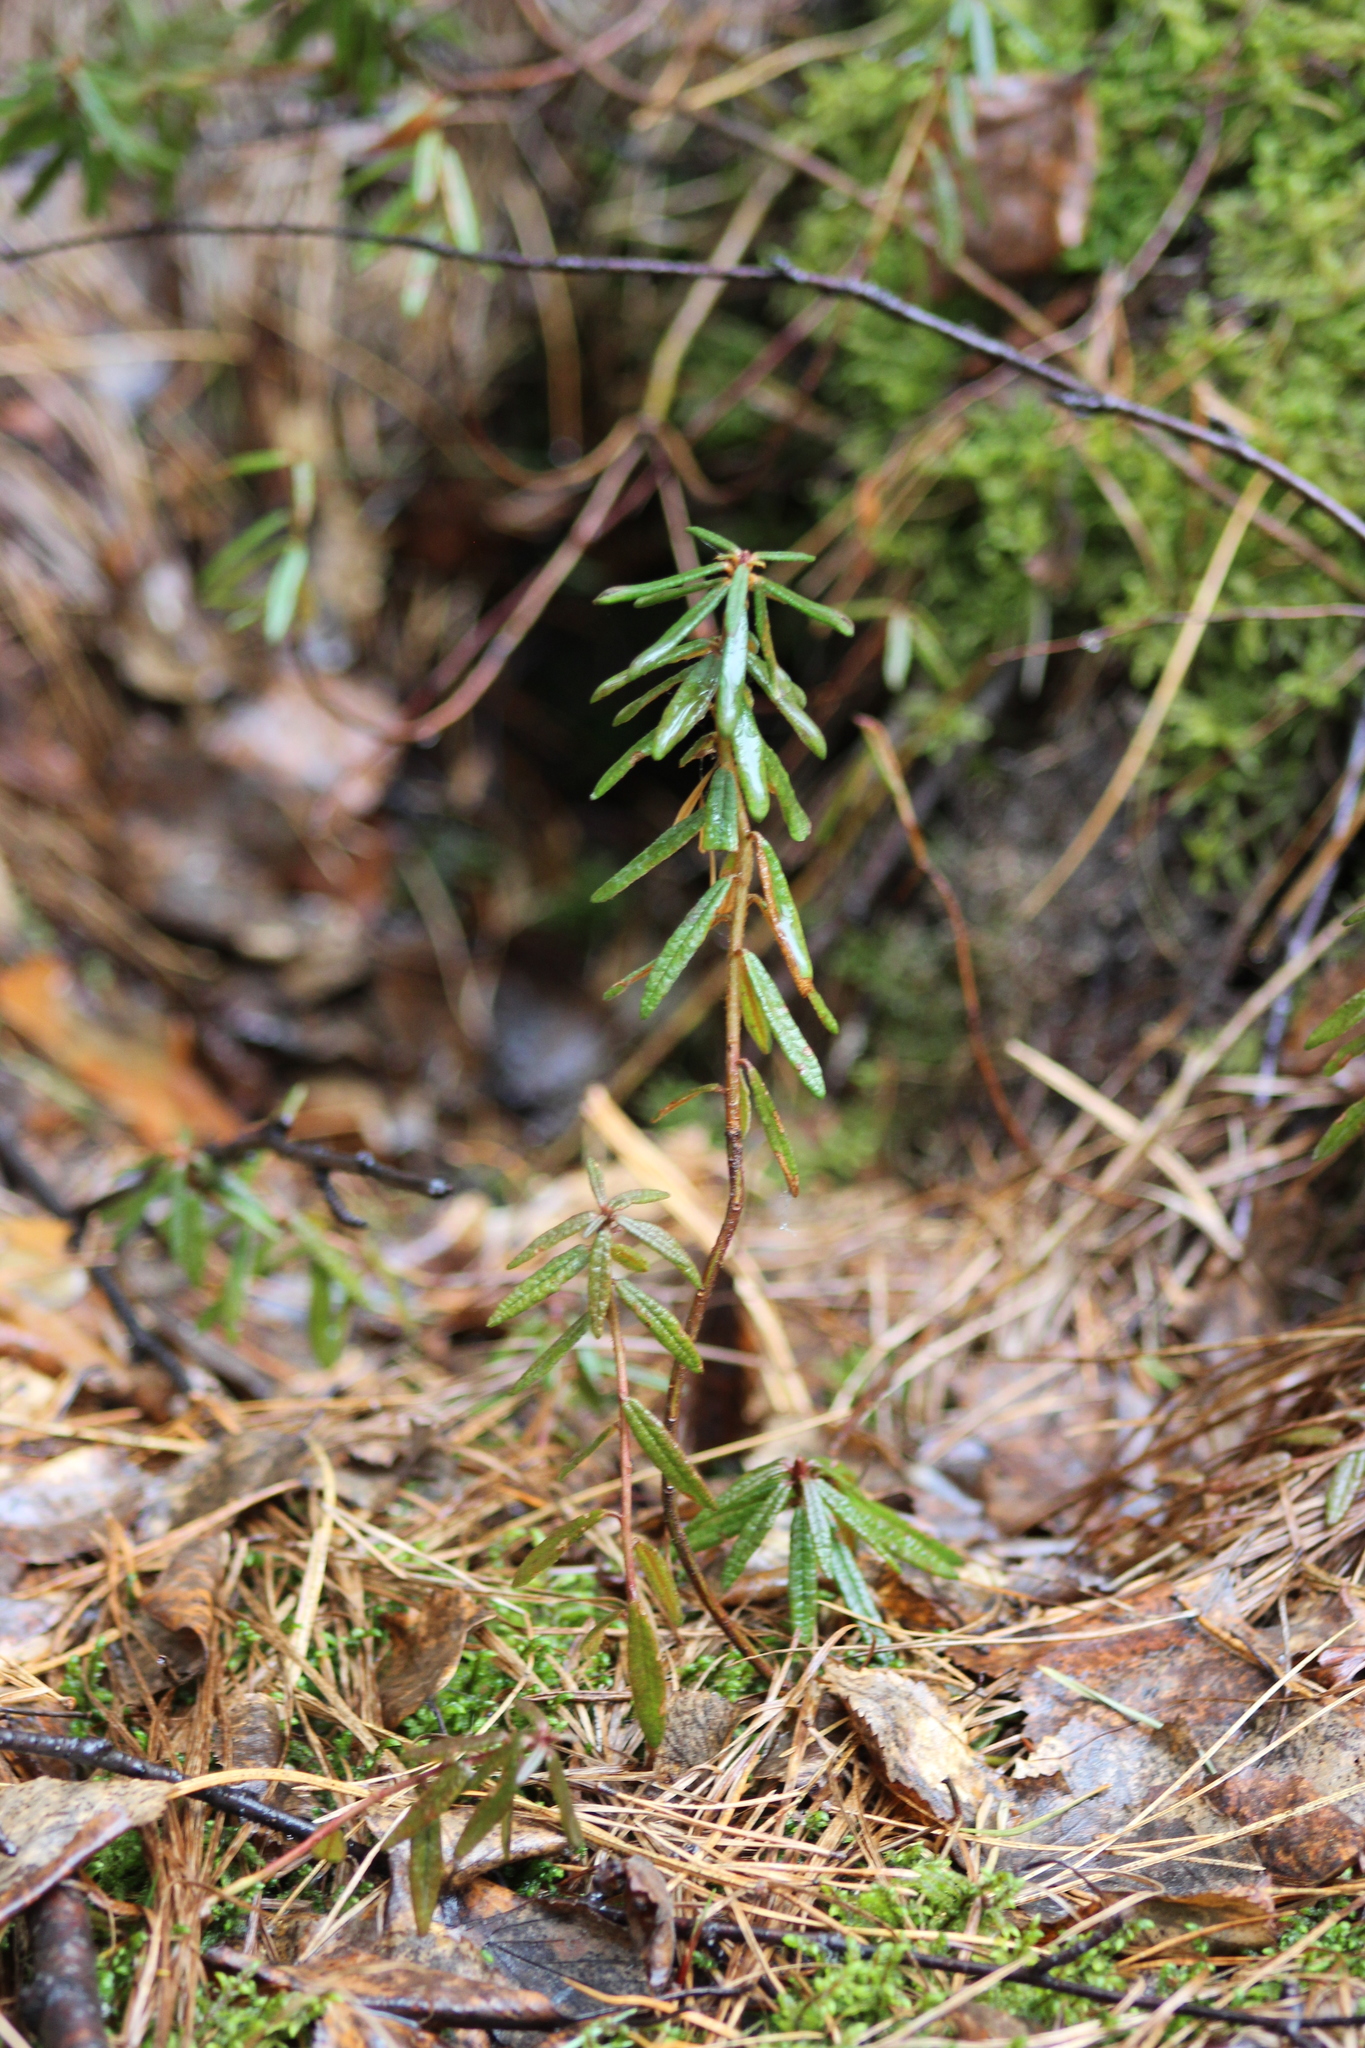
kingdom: Plantae
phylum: Tracheophyta
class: Magnoliopsida
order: Ericales
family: Ericaceae
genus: Rhododendron
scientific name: Rhododendron tomentosum
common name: Marsh labrador tea
